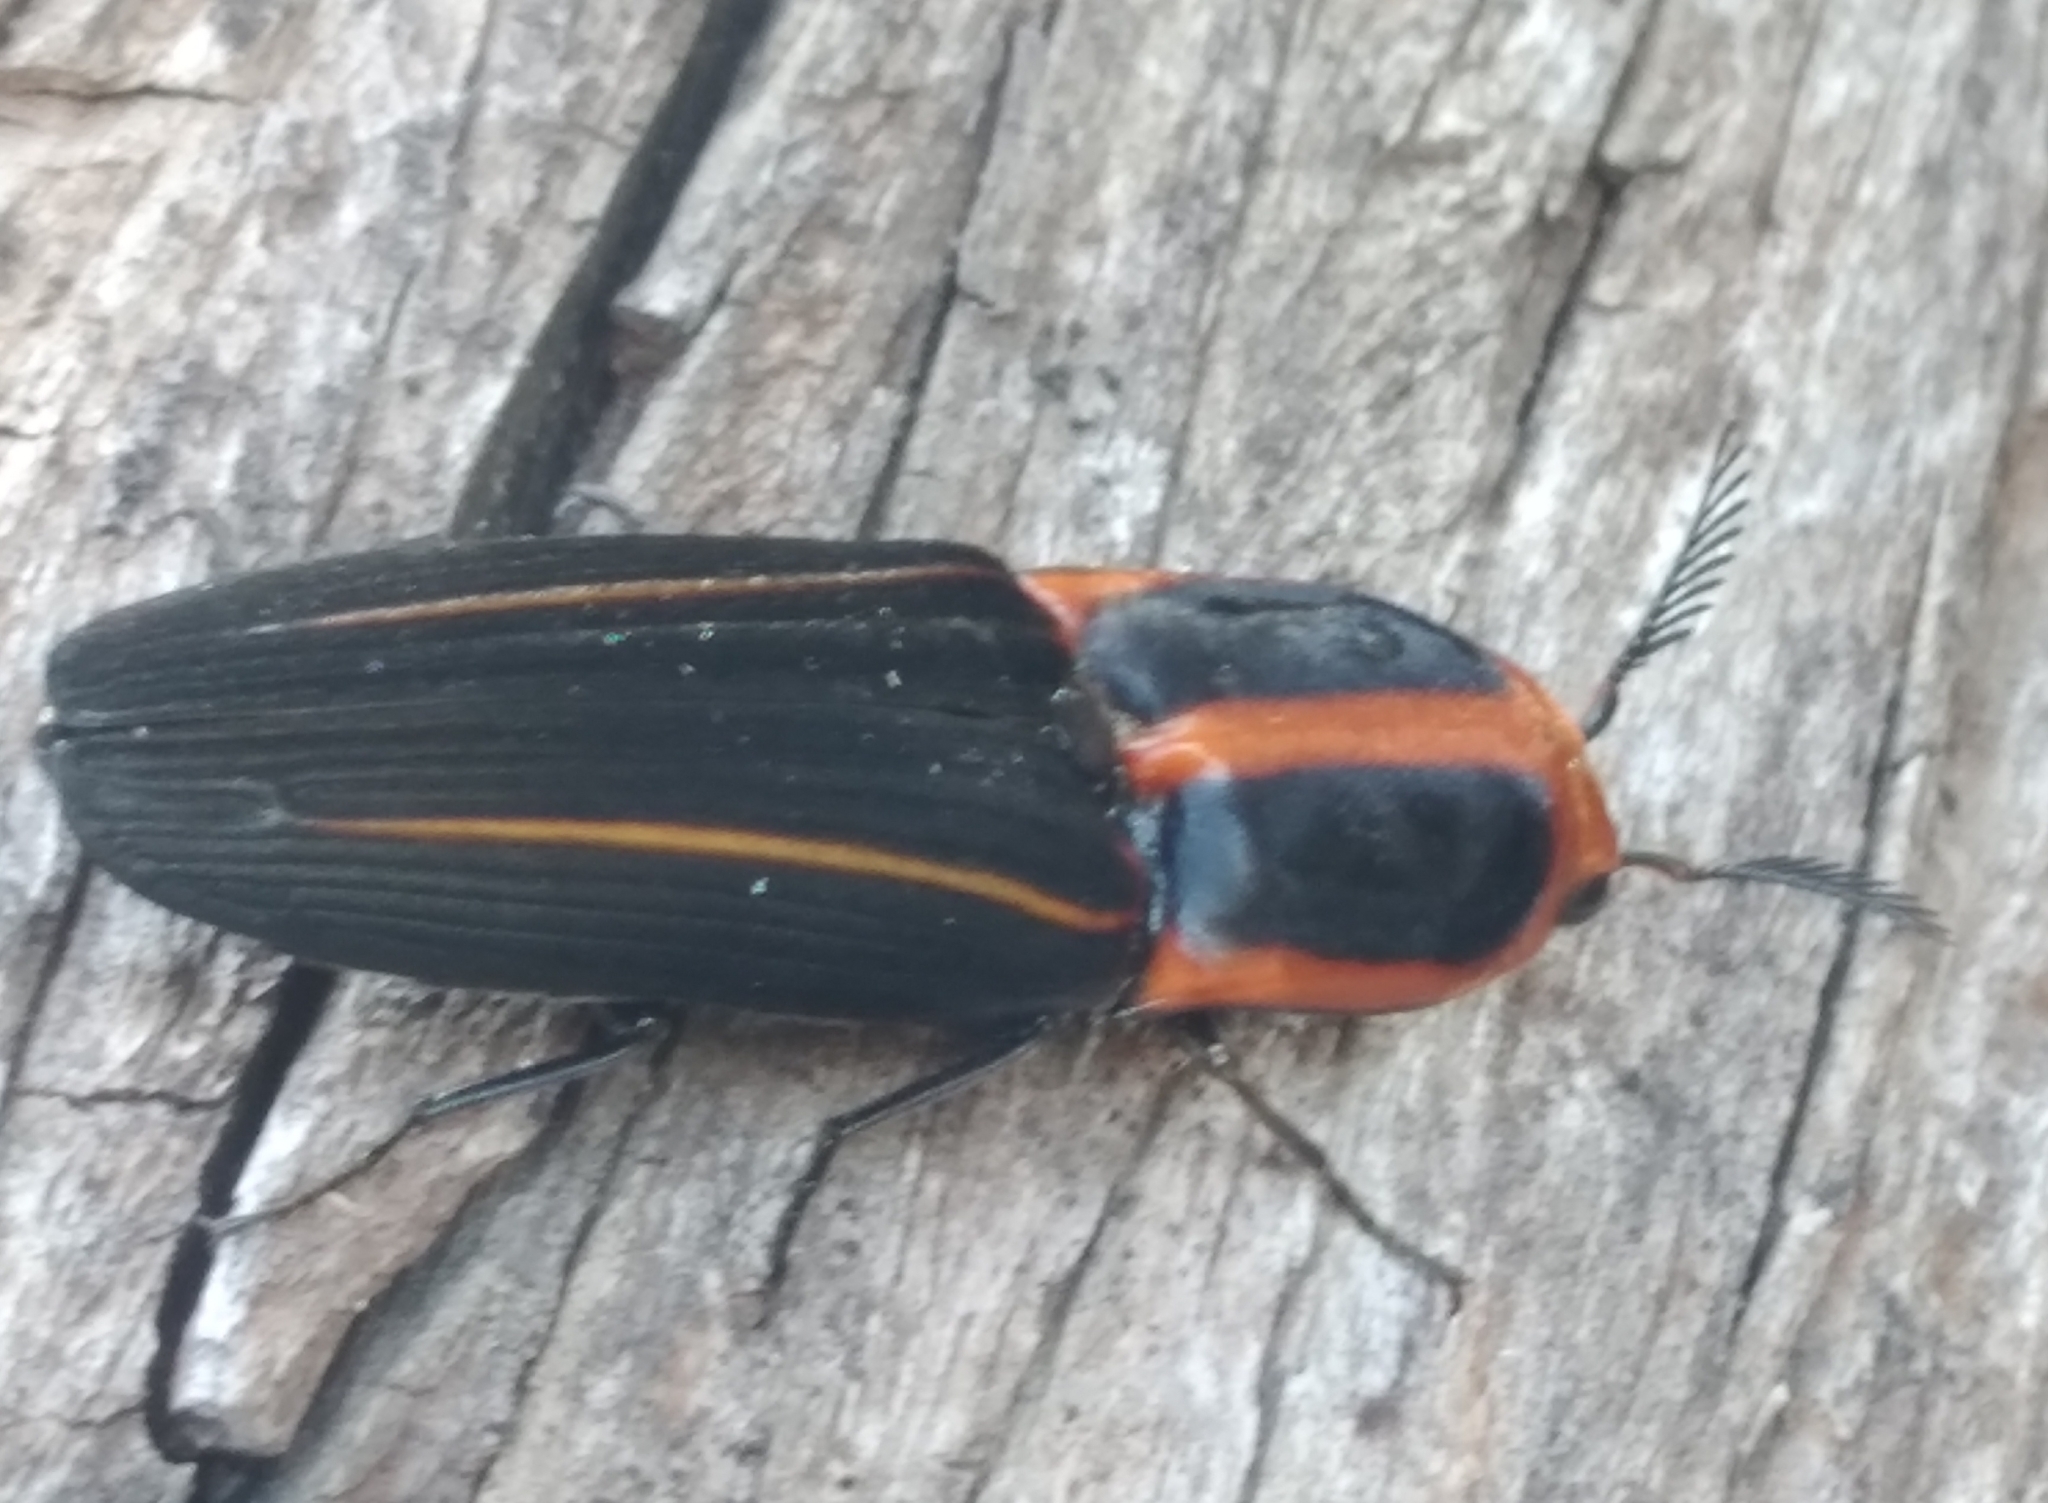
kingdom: Animalia
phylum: Arthropoda
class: Insecta
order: Coleoptera
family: Elateridae
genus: Hemirhipus
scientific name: Hemirhipus
